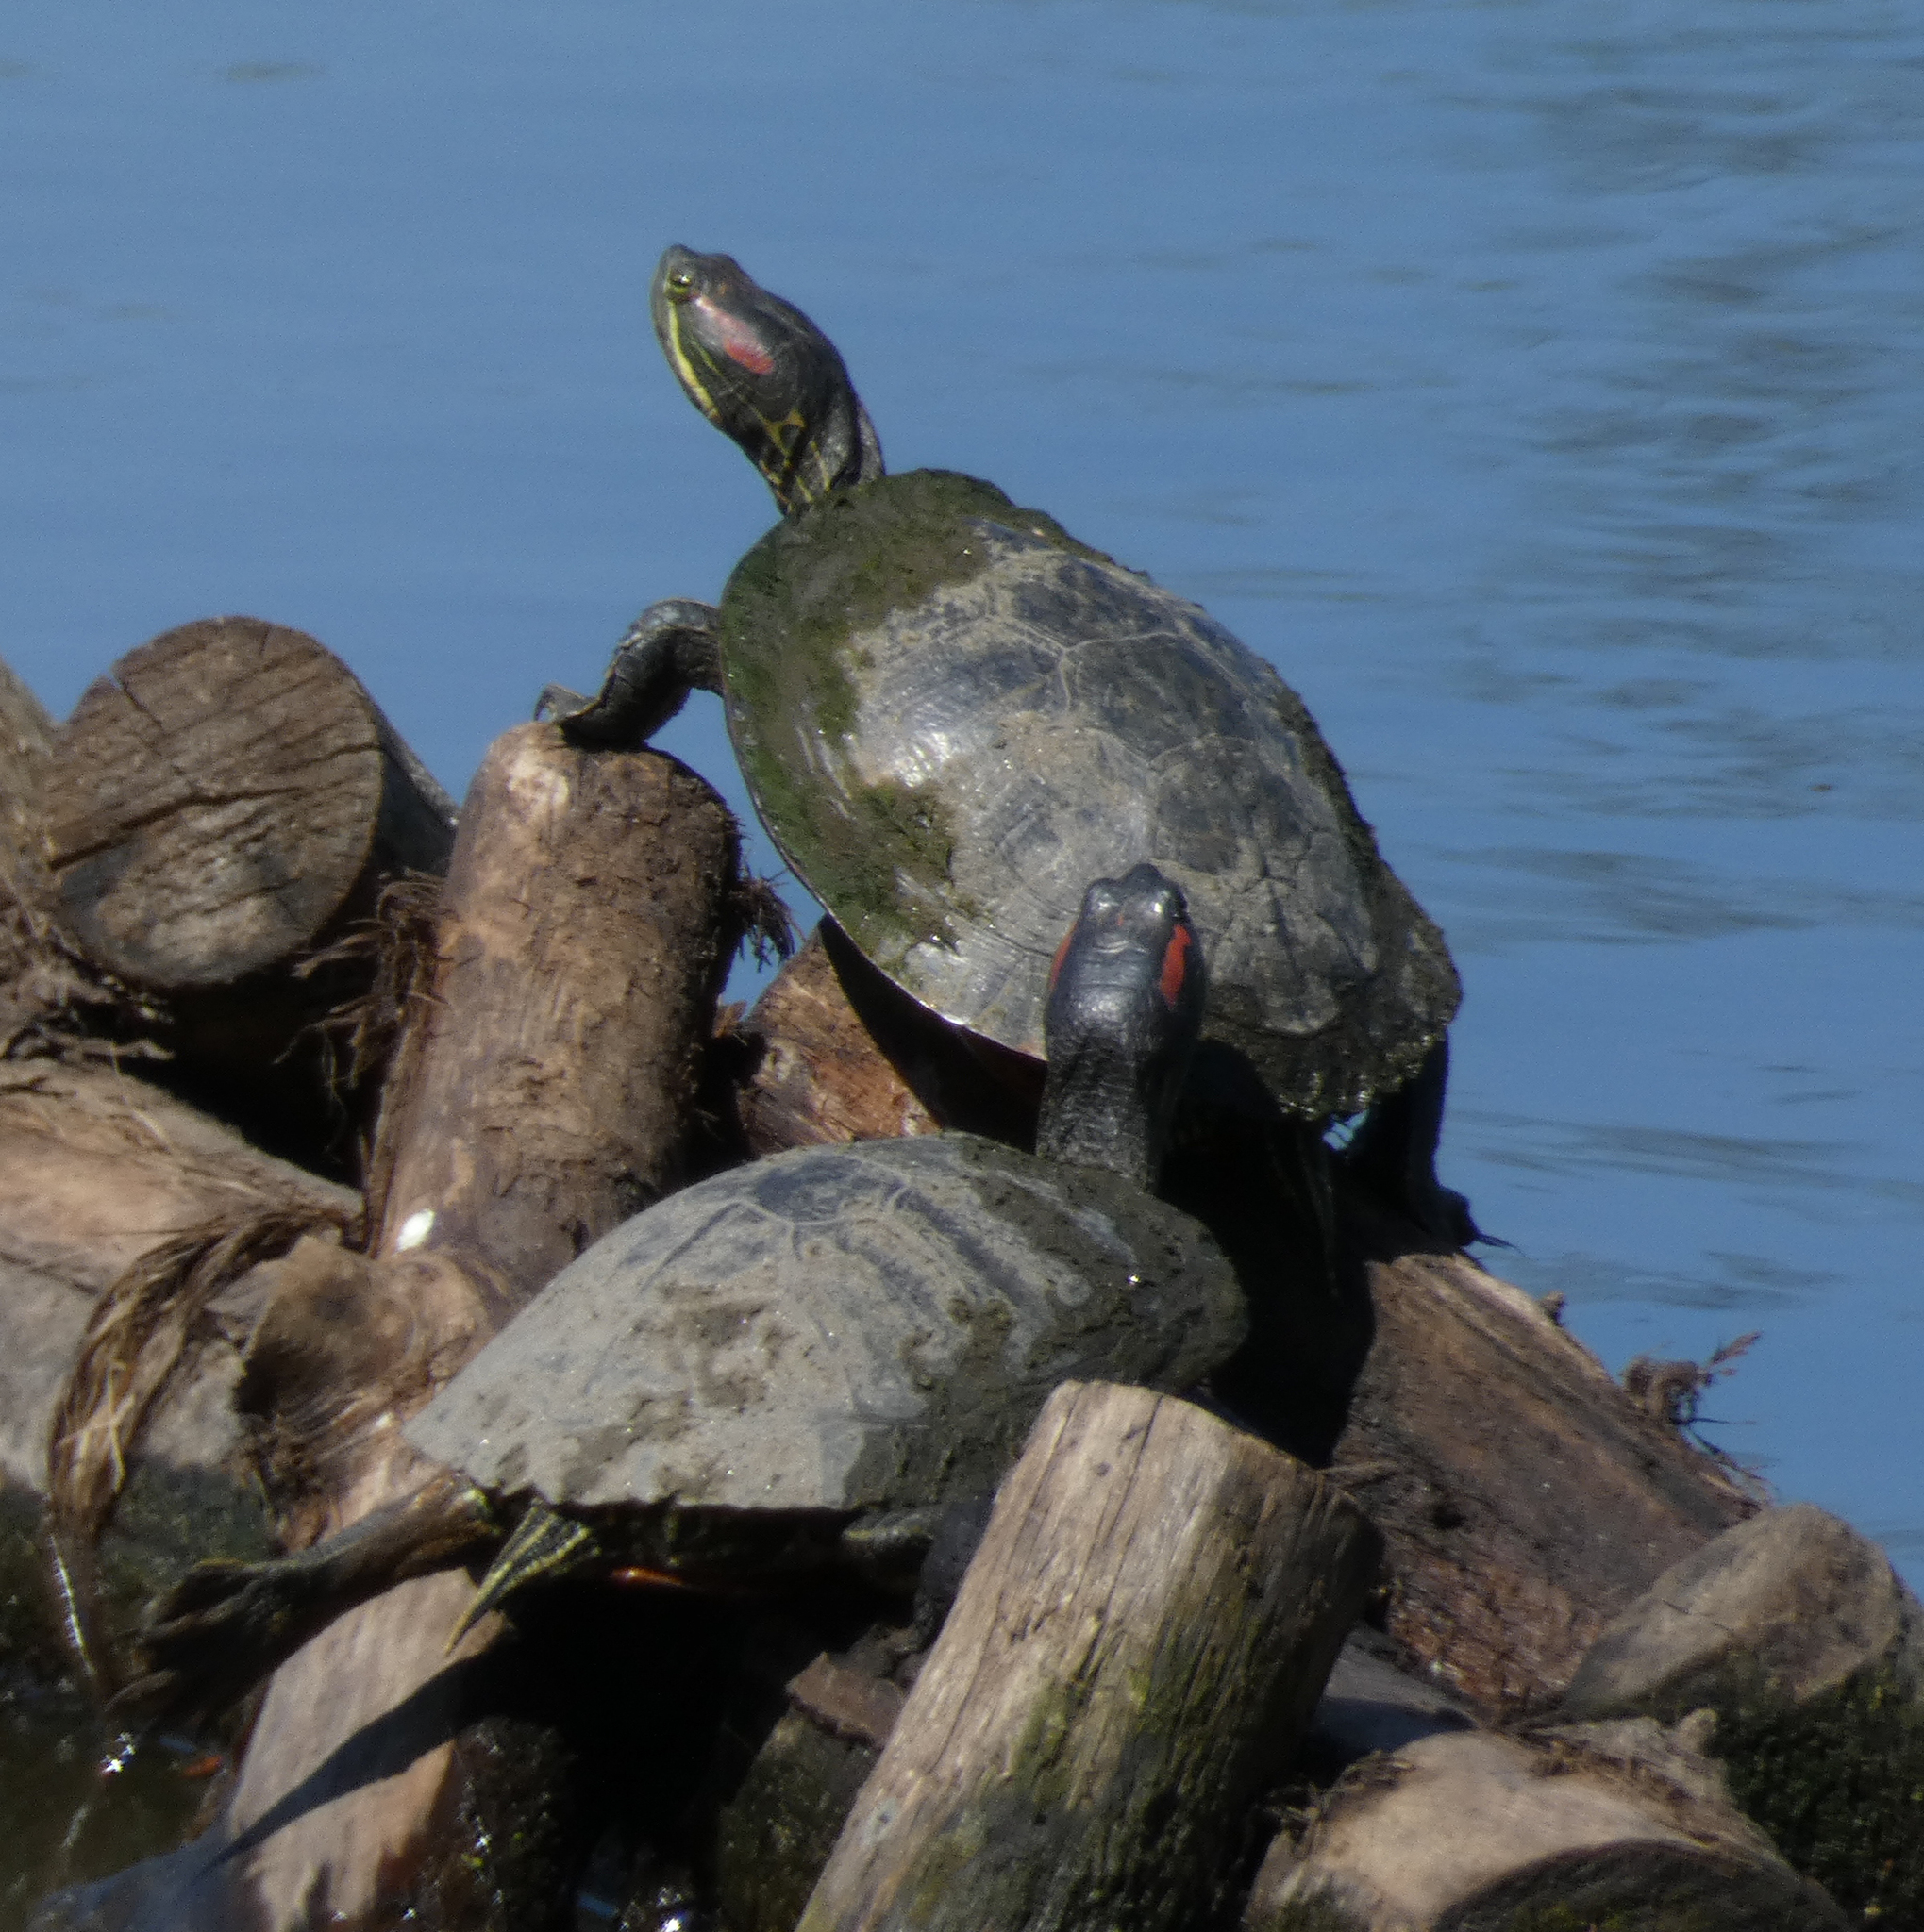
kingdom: Animalia
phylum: Chordata
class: Testudines
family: Emydidae
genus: Trachemys
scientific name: Trachemys scripta
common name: Slider
